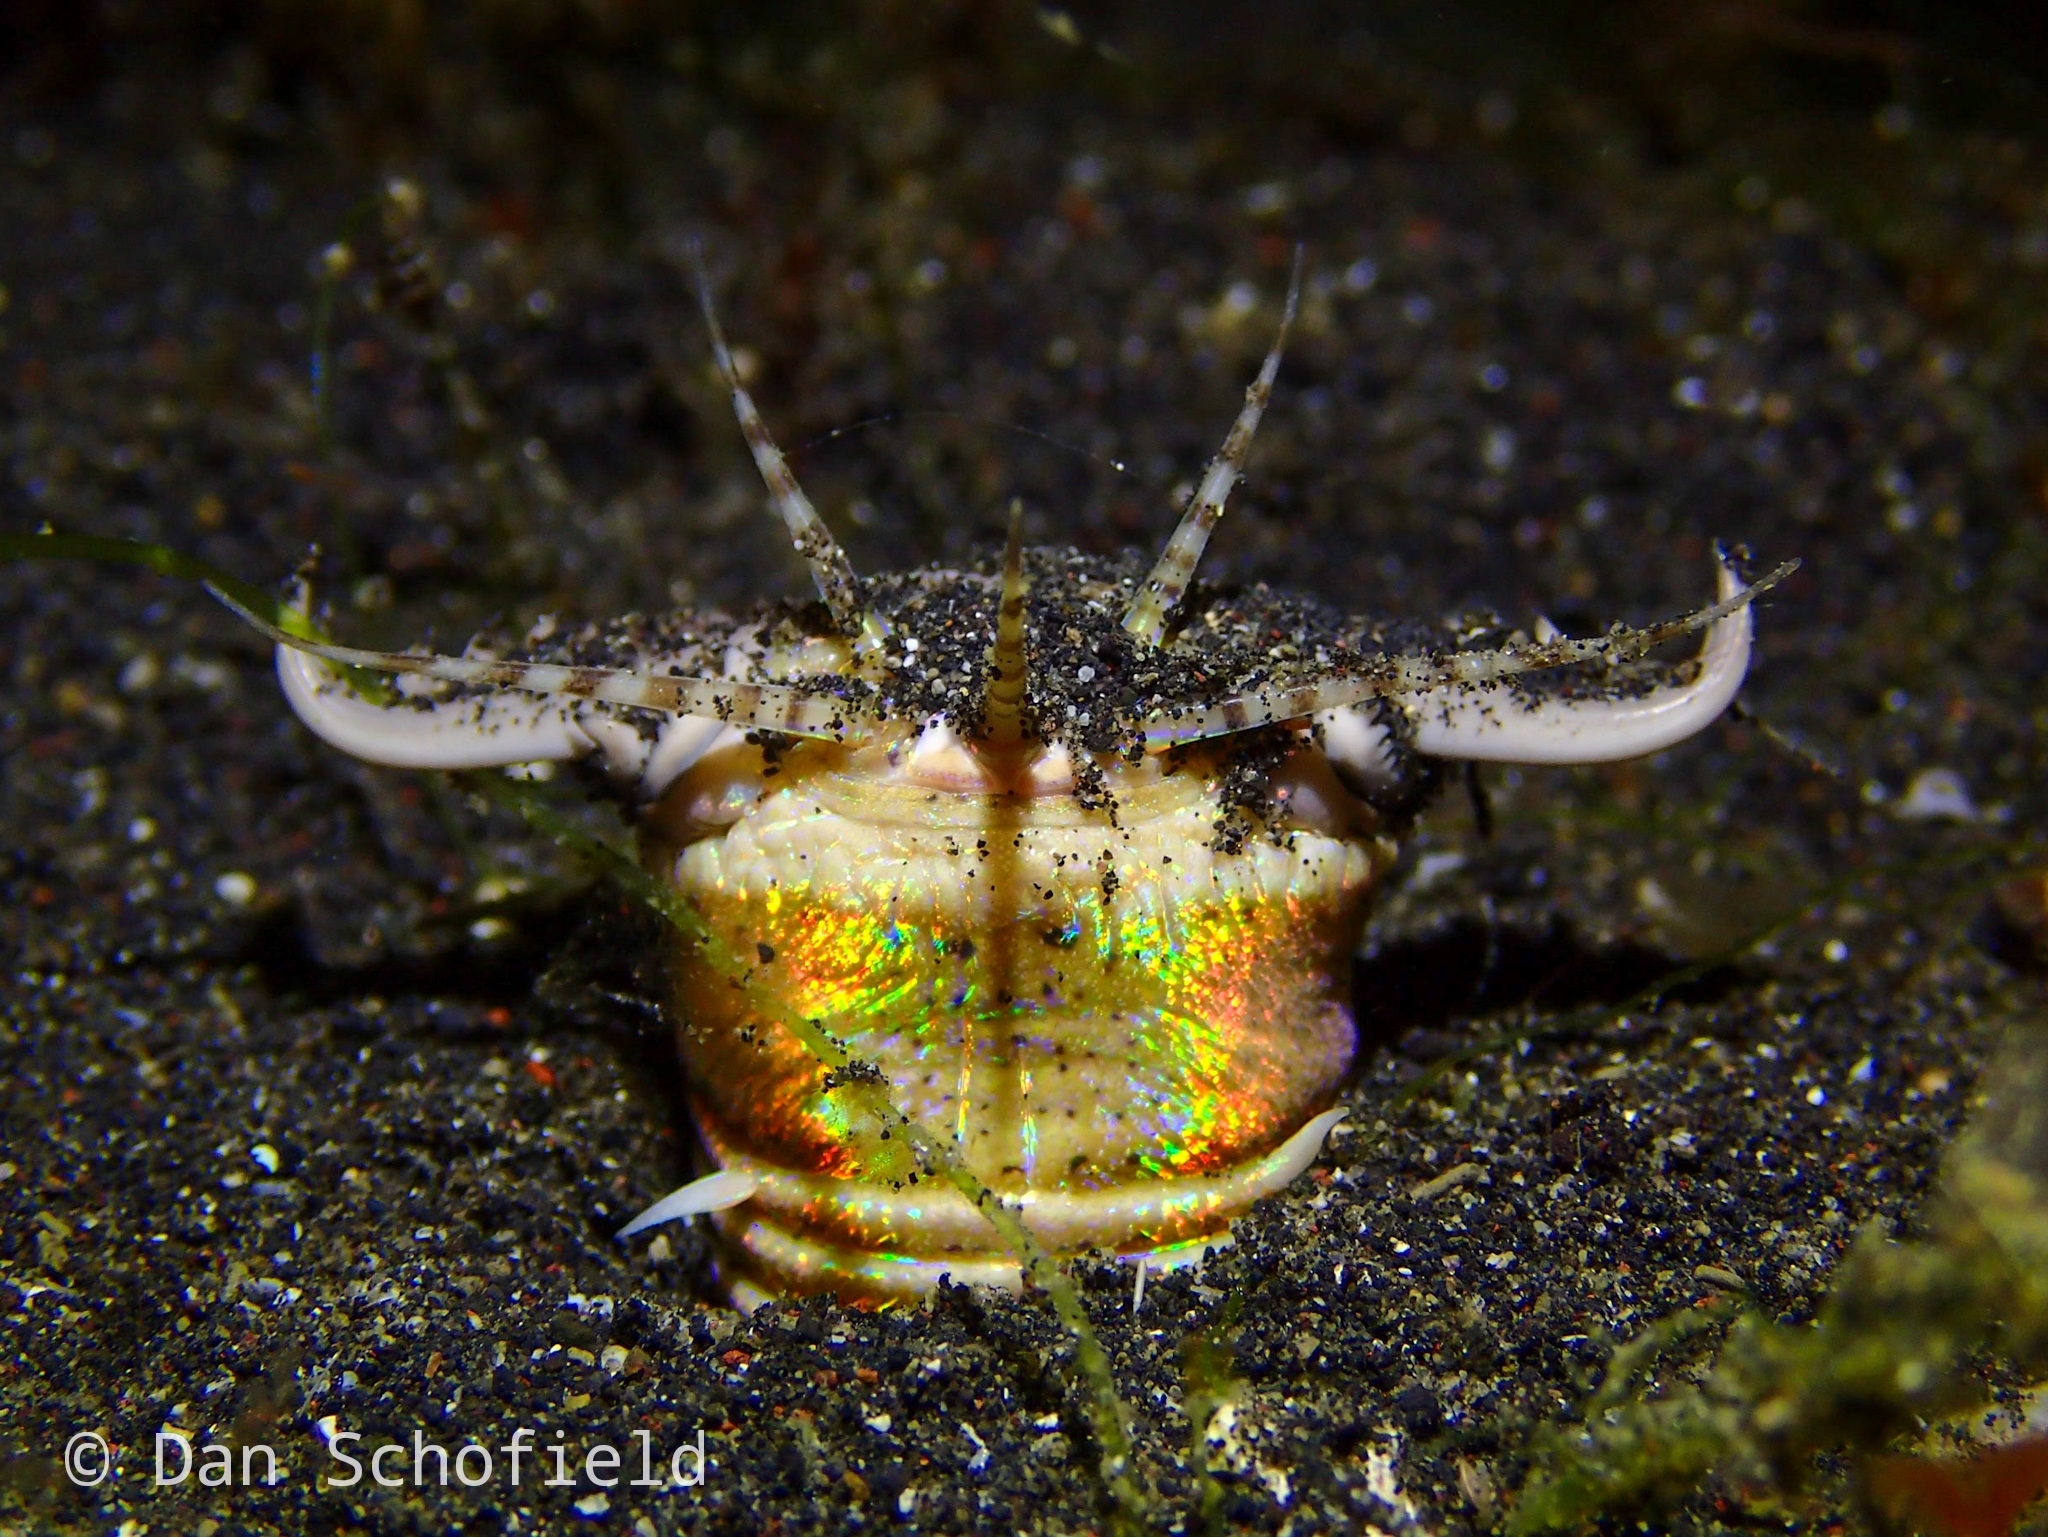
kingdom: Animalia
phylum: Annelida
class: Polychaeta
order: Eunicida
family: Eunicidae
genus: Eunice
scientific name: Eunice aphroditois
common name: Wonder-worm
